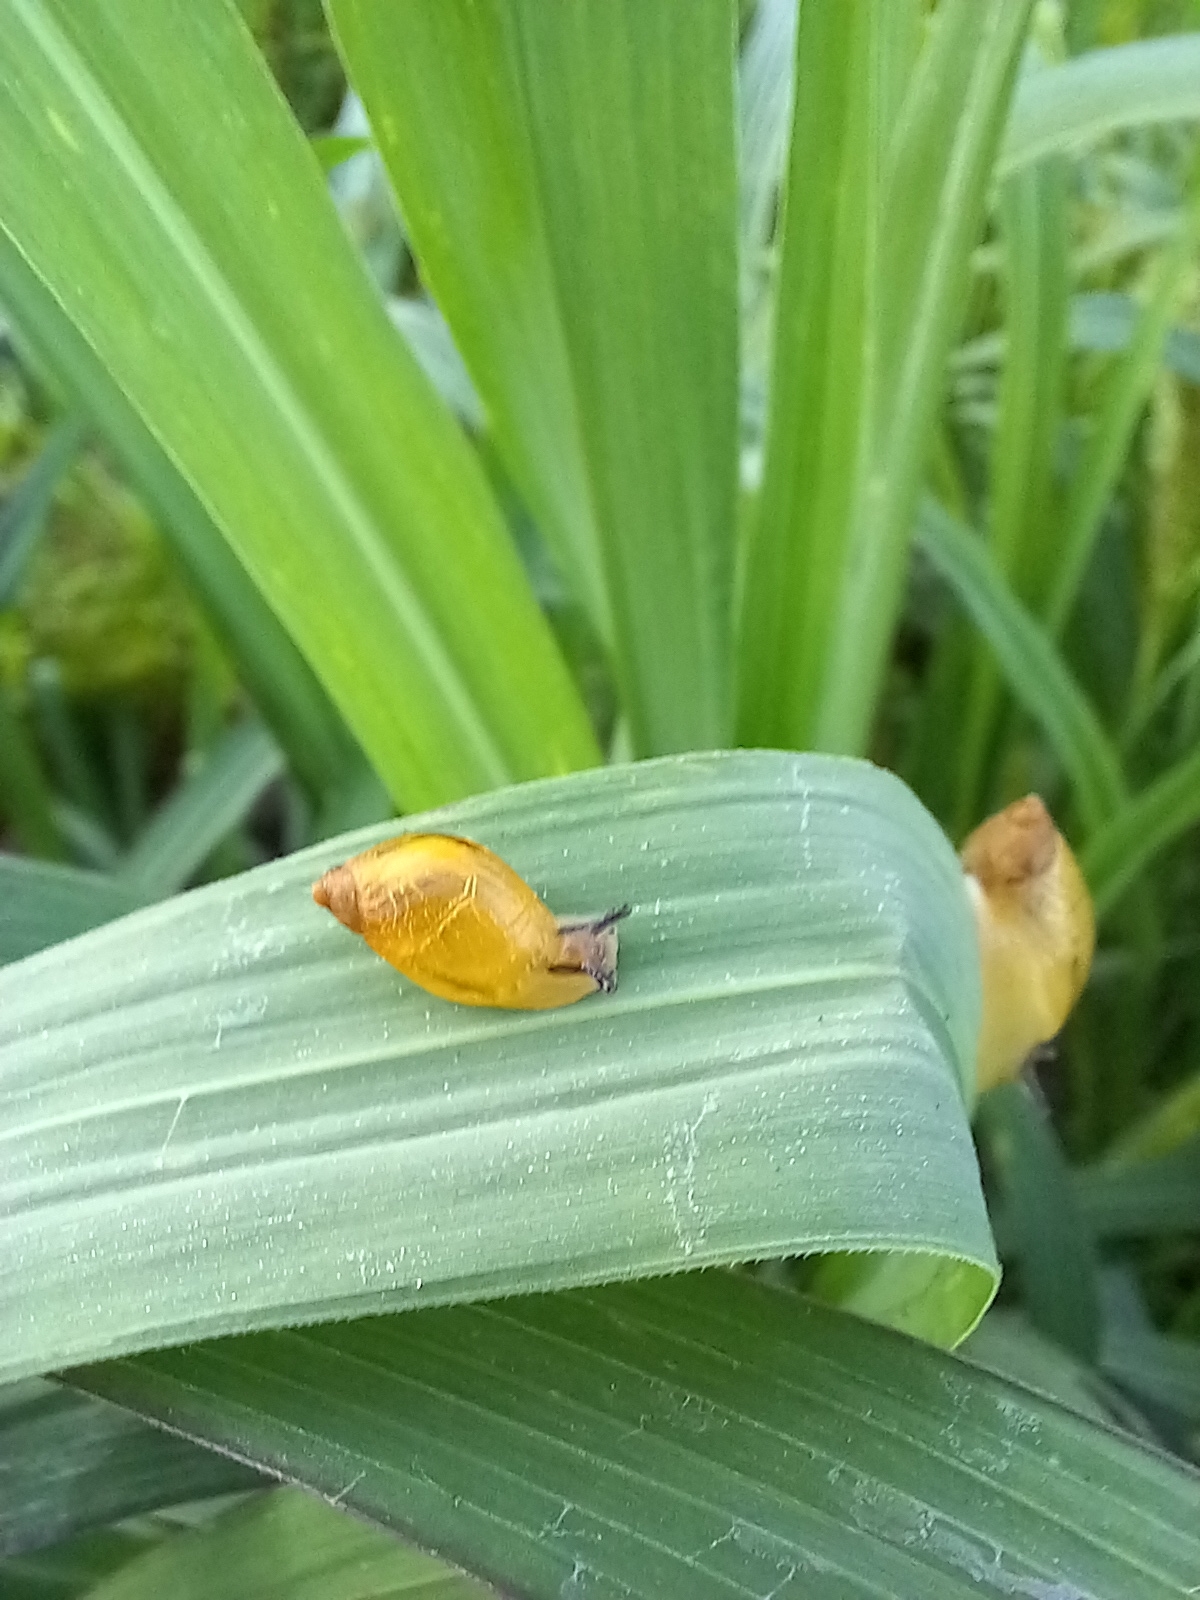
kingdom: Animalia
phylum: Mollusca
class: Gastropoda
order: Stylommatophora
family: Succineidae
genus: Succinea
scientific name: Succinea putris
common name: European ambersnail
